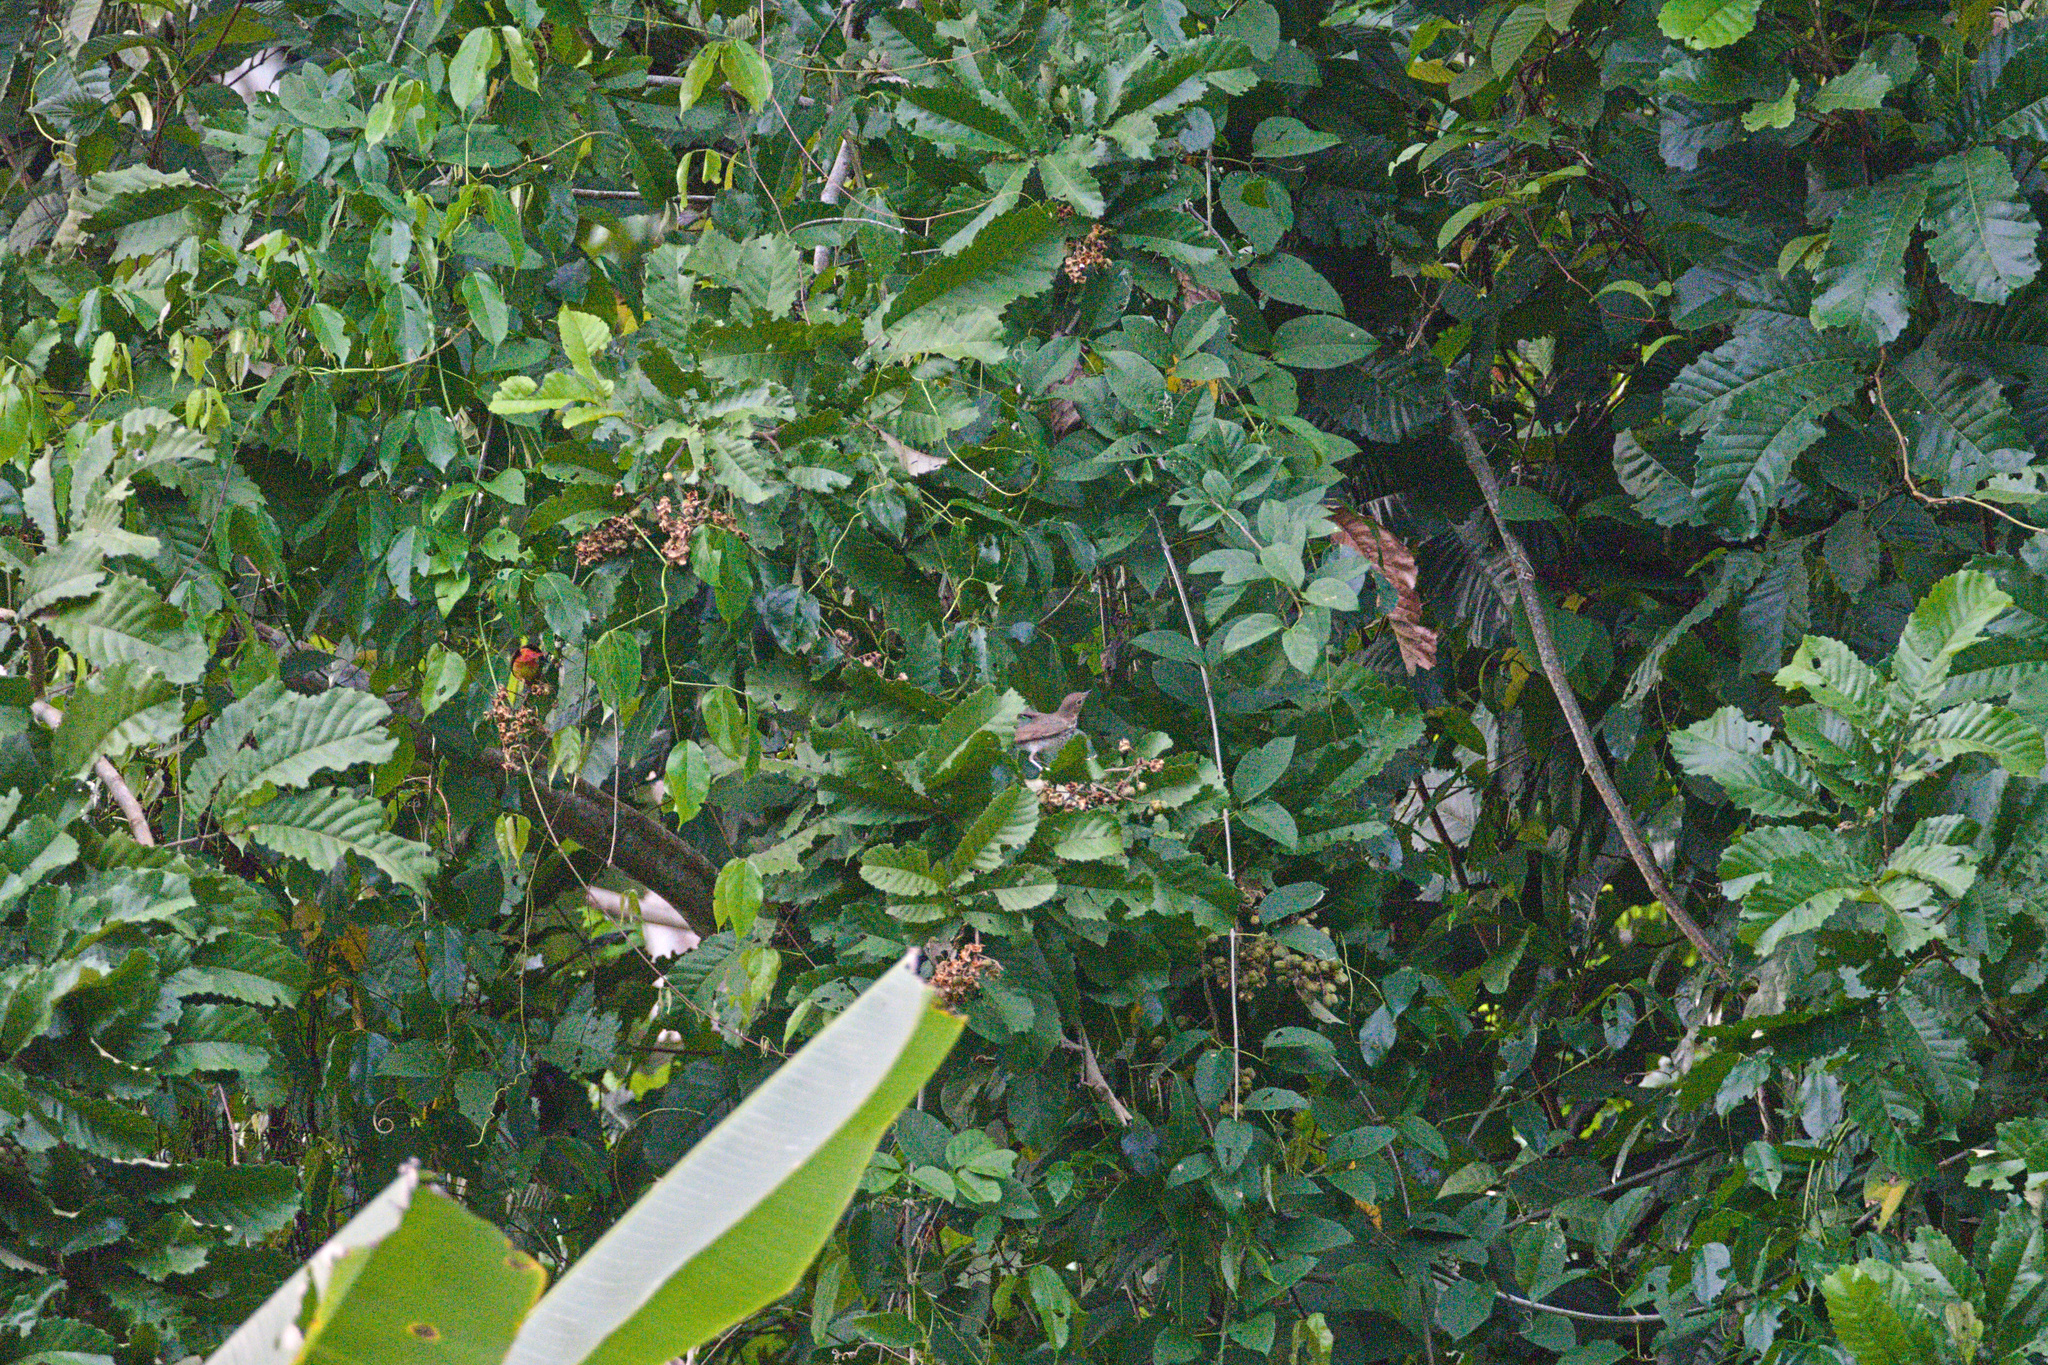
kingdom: Animalia
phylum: Chordata
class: Aves
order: Passeriformes
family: Turdidae
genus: Catharus
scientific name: Catharus ustulatus
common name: Swainson's thrush
